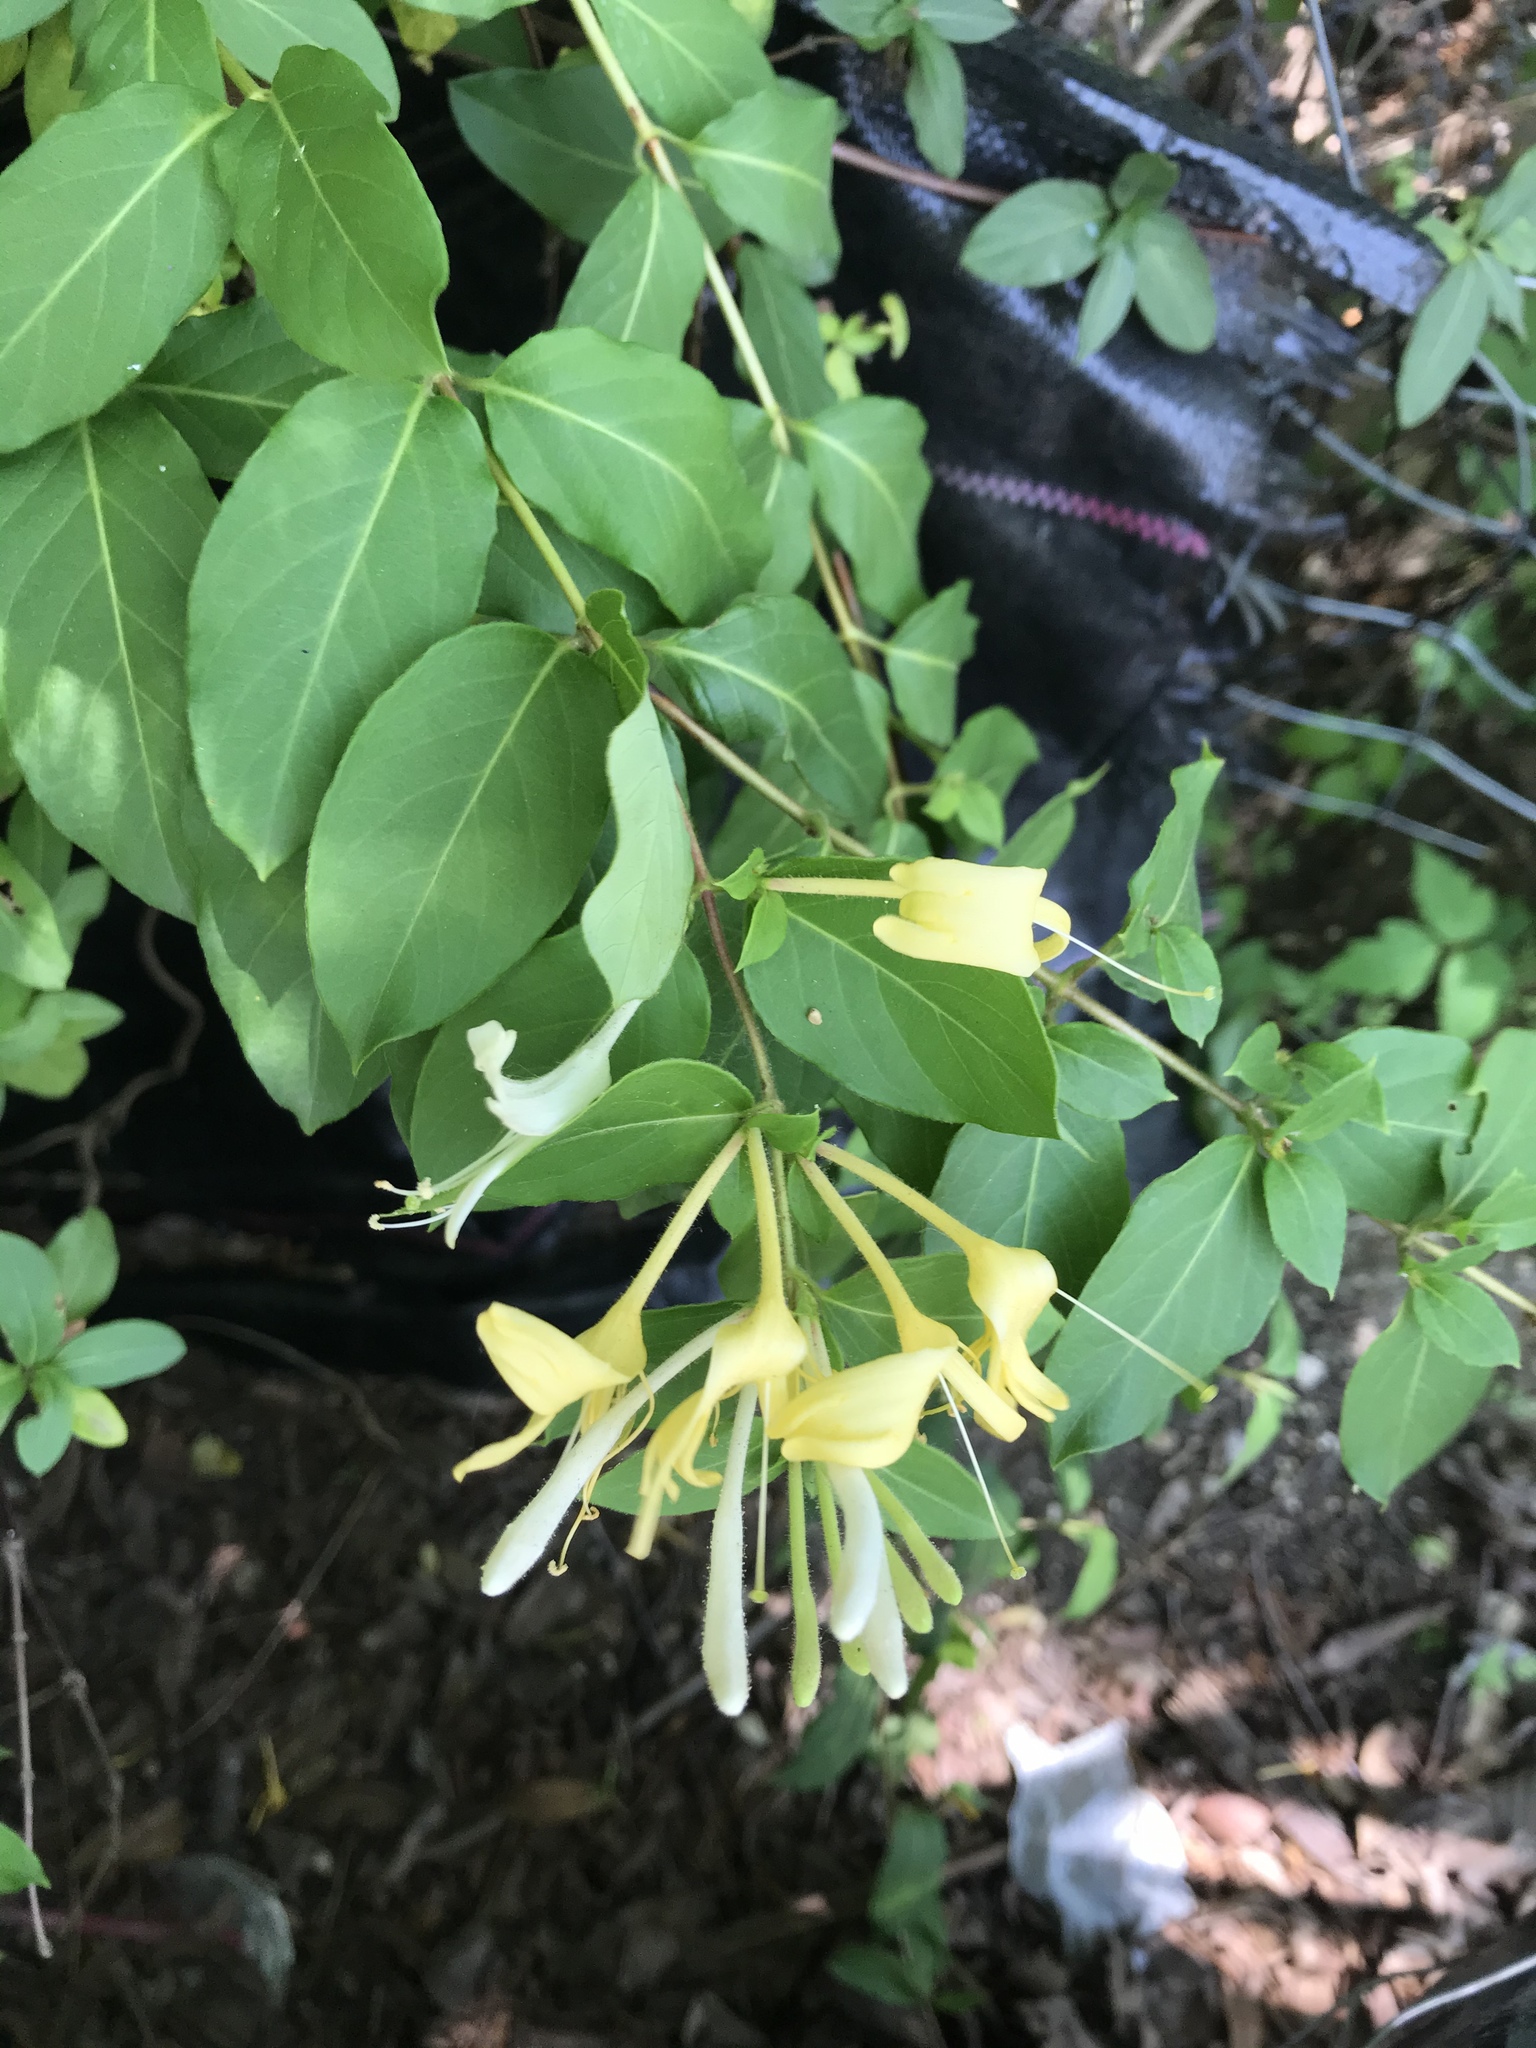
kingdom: Plantae
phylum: Tracheophyta
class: Magnoliopsida
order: Dipsacales
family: Caprifoliaceae
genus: Lonicera
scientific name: Lonicera japonica
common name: Japanese honeysuckle
